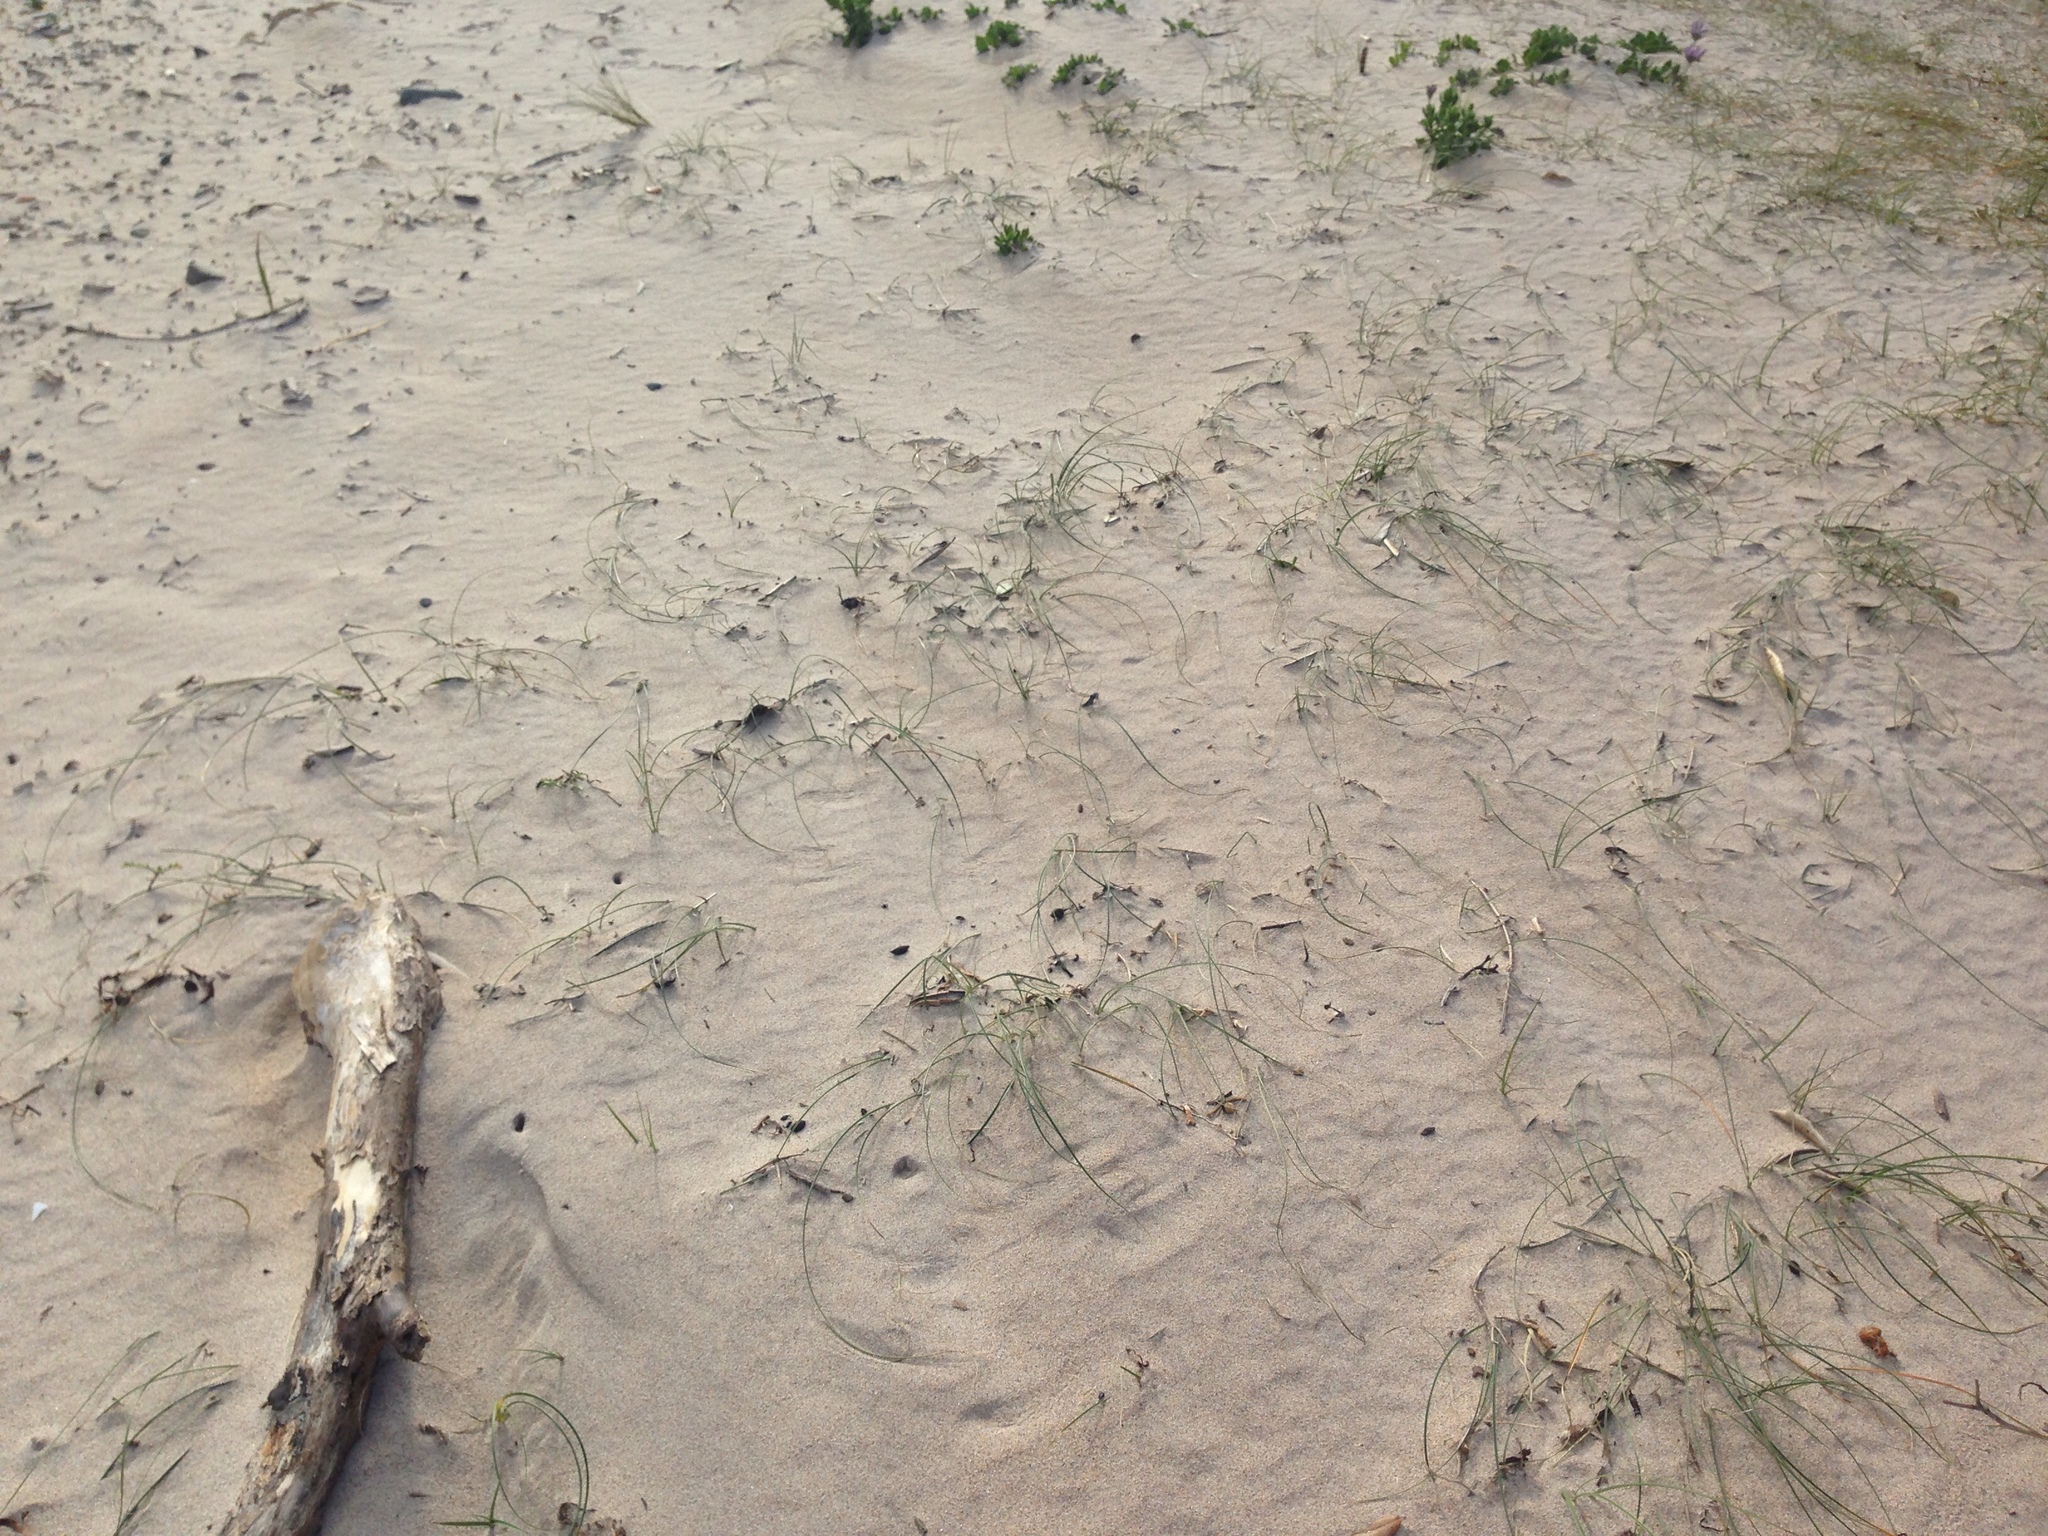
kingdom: Plantae
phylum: Tracheophyta
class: Liliopsida
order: Poales
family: Cyperaceae
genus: Carex
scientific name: Carex pumila
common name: Dwarf sedge
